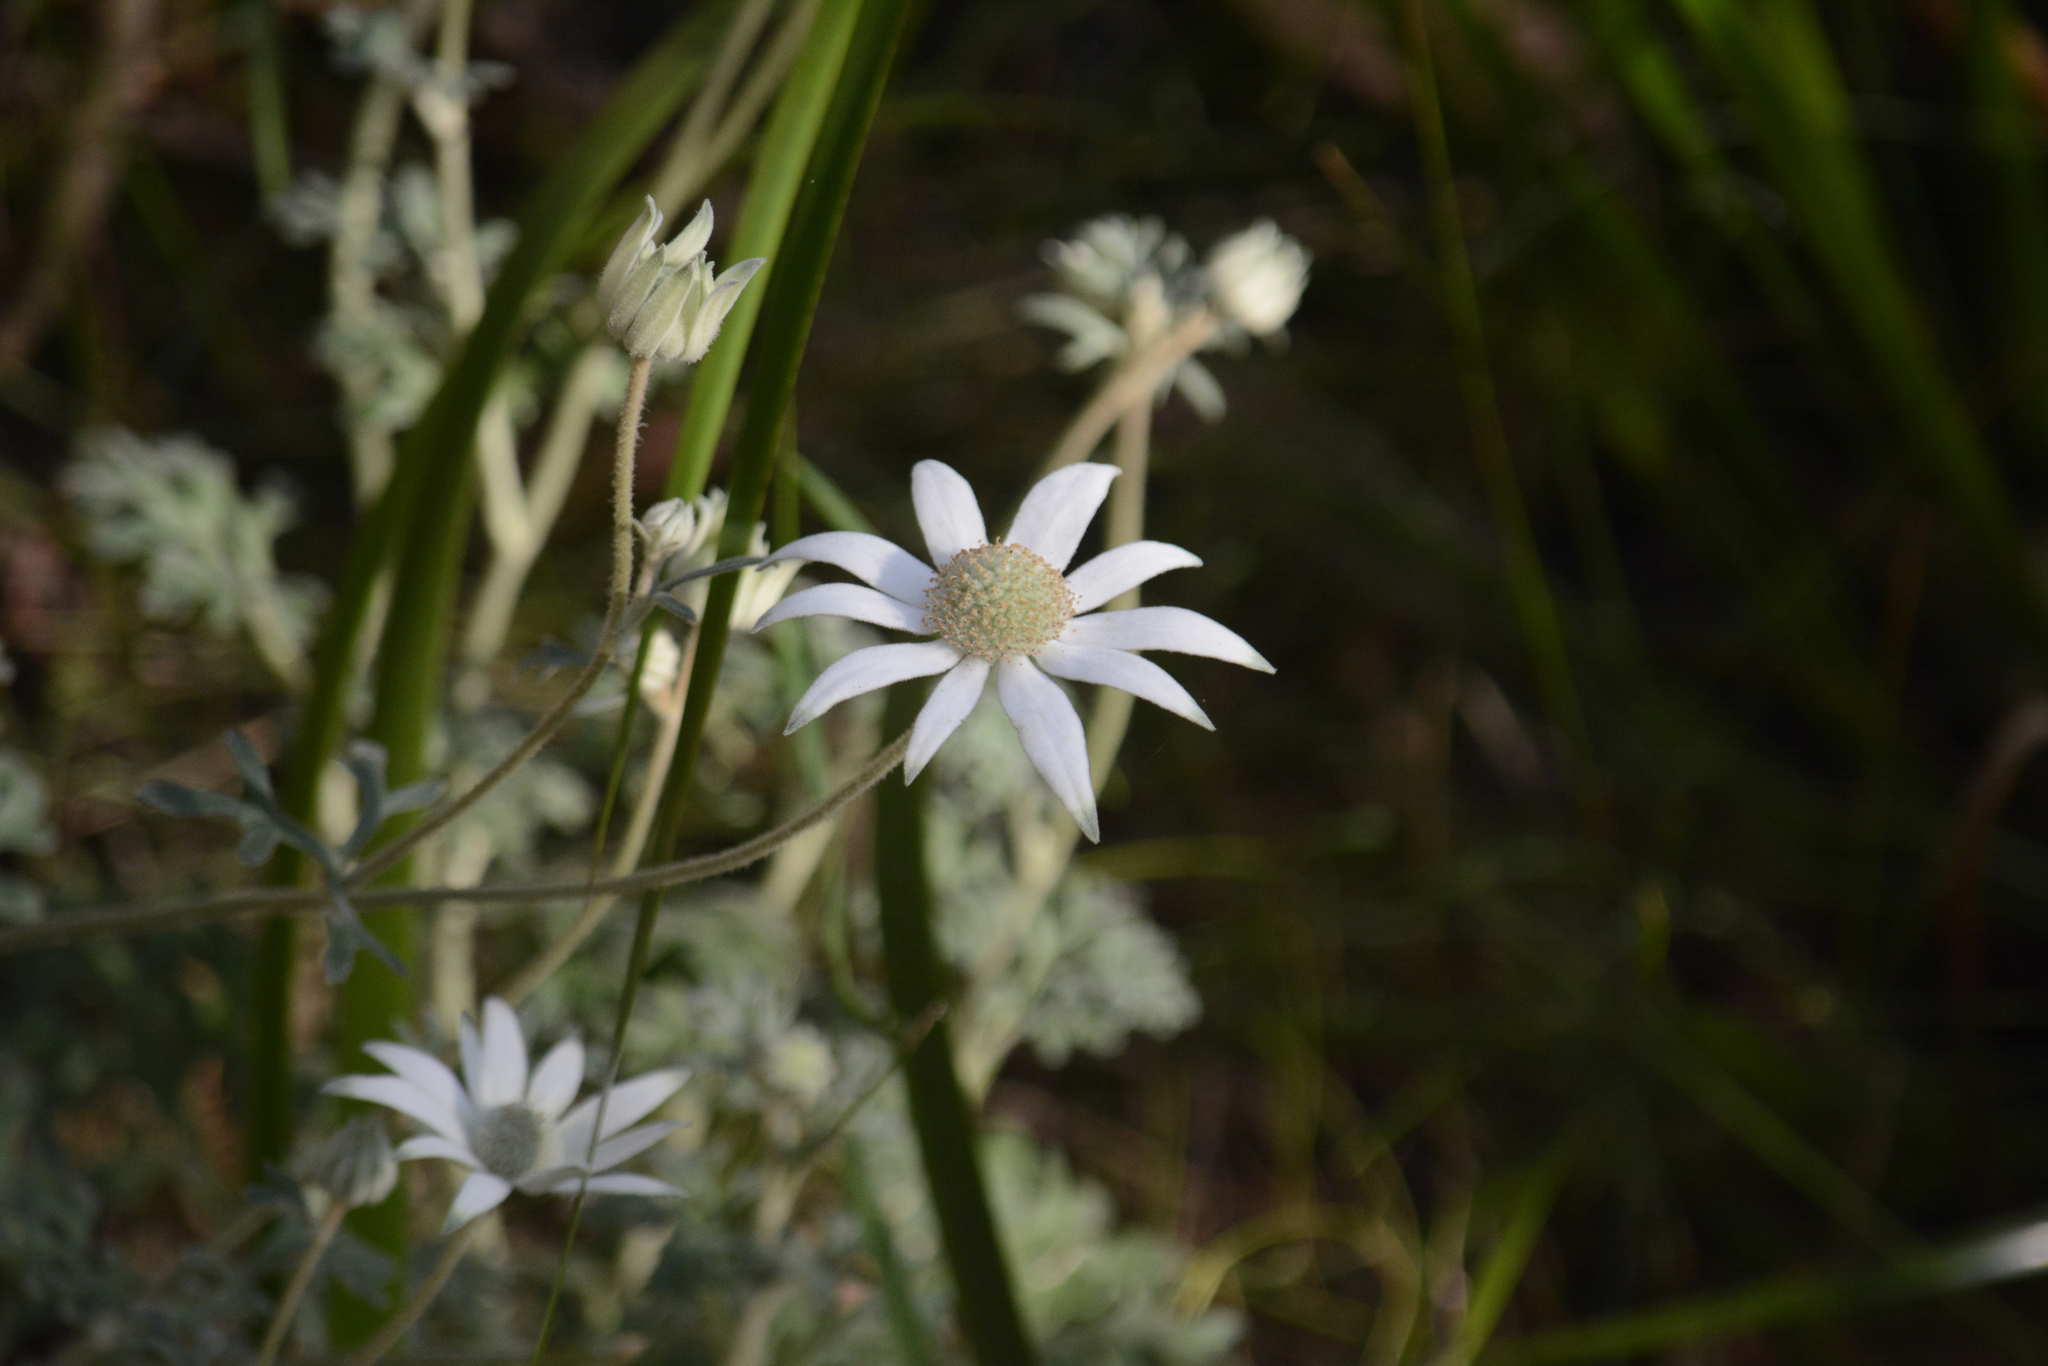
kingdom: Plantae
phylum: Tracheophyta
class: Magnoliopsida
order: Apiales
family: Apiaceae
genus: Actinotus
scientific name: Actinotus helianthi
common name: Flannel-flower
